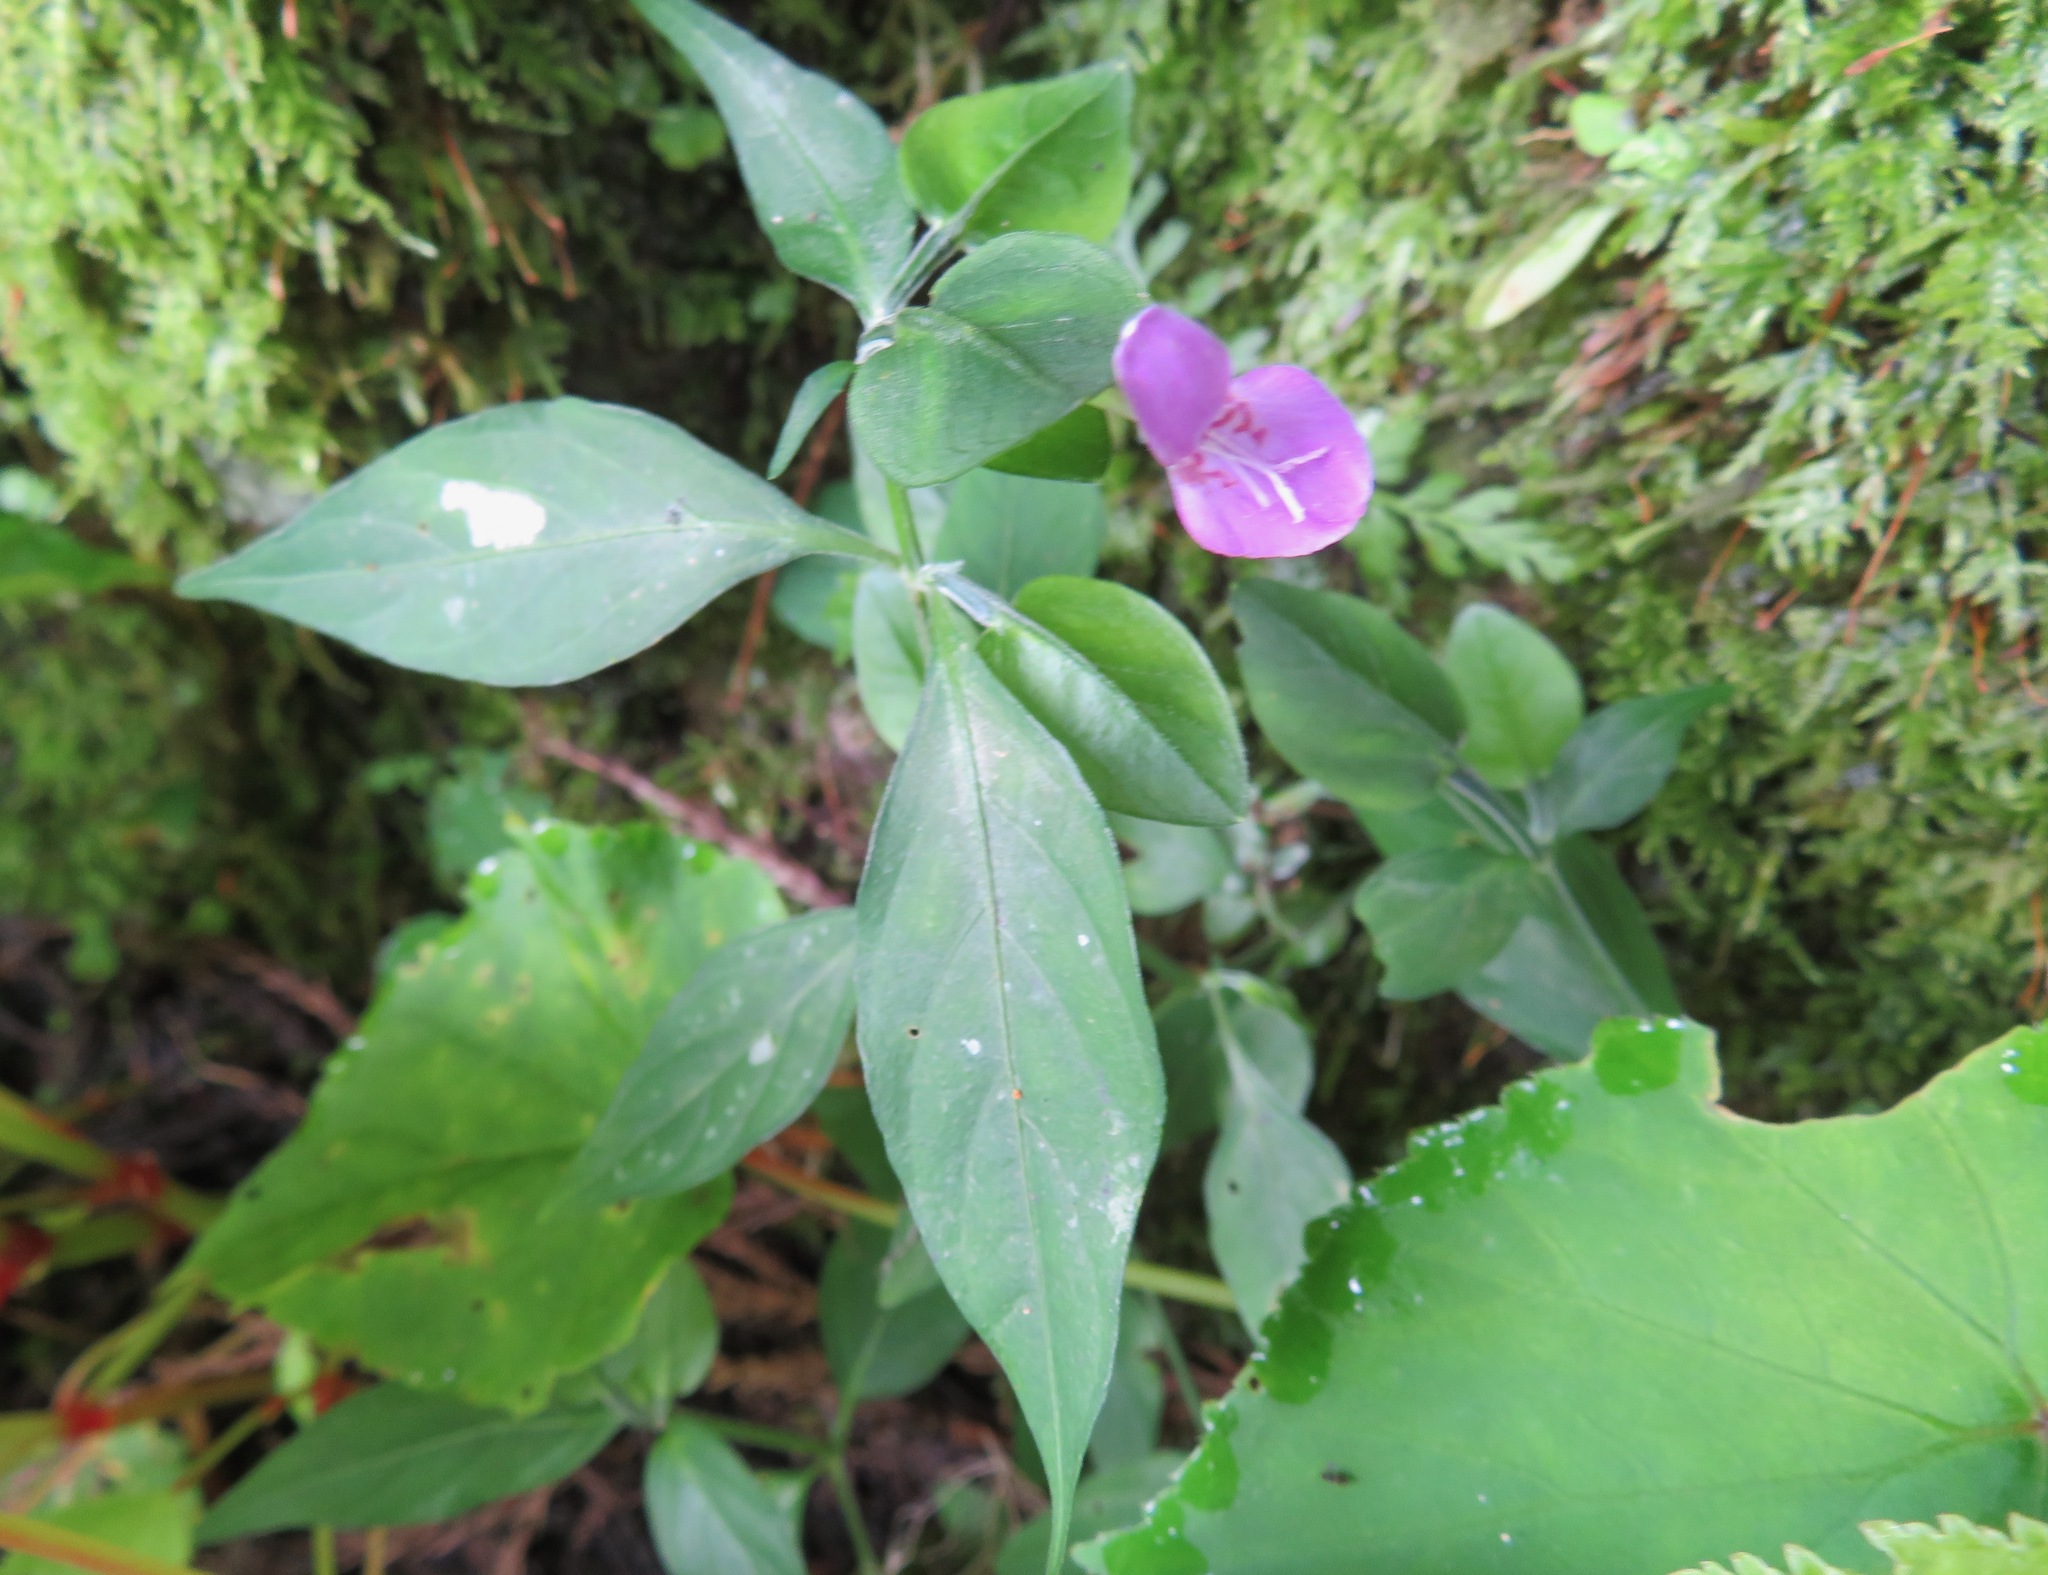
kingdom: Plantae
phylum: Tracheophyta
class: Magnoliopsida
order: Lamiales
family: Acanthaceae
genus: Dicliptera
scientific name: Dicliptera japonica
